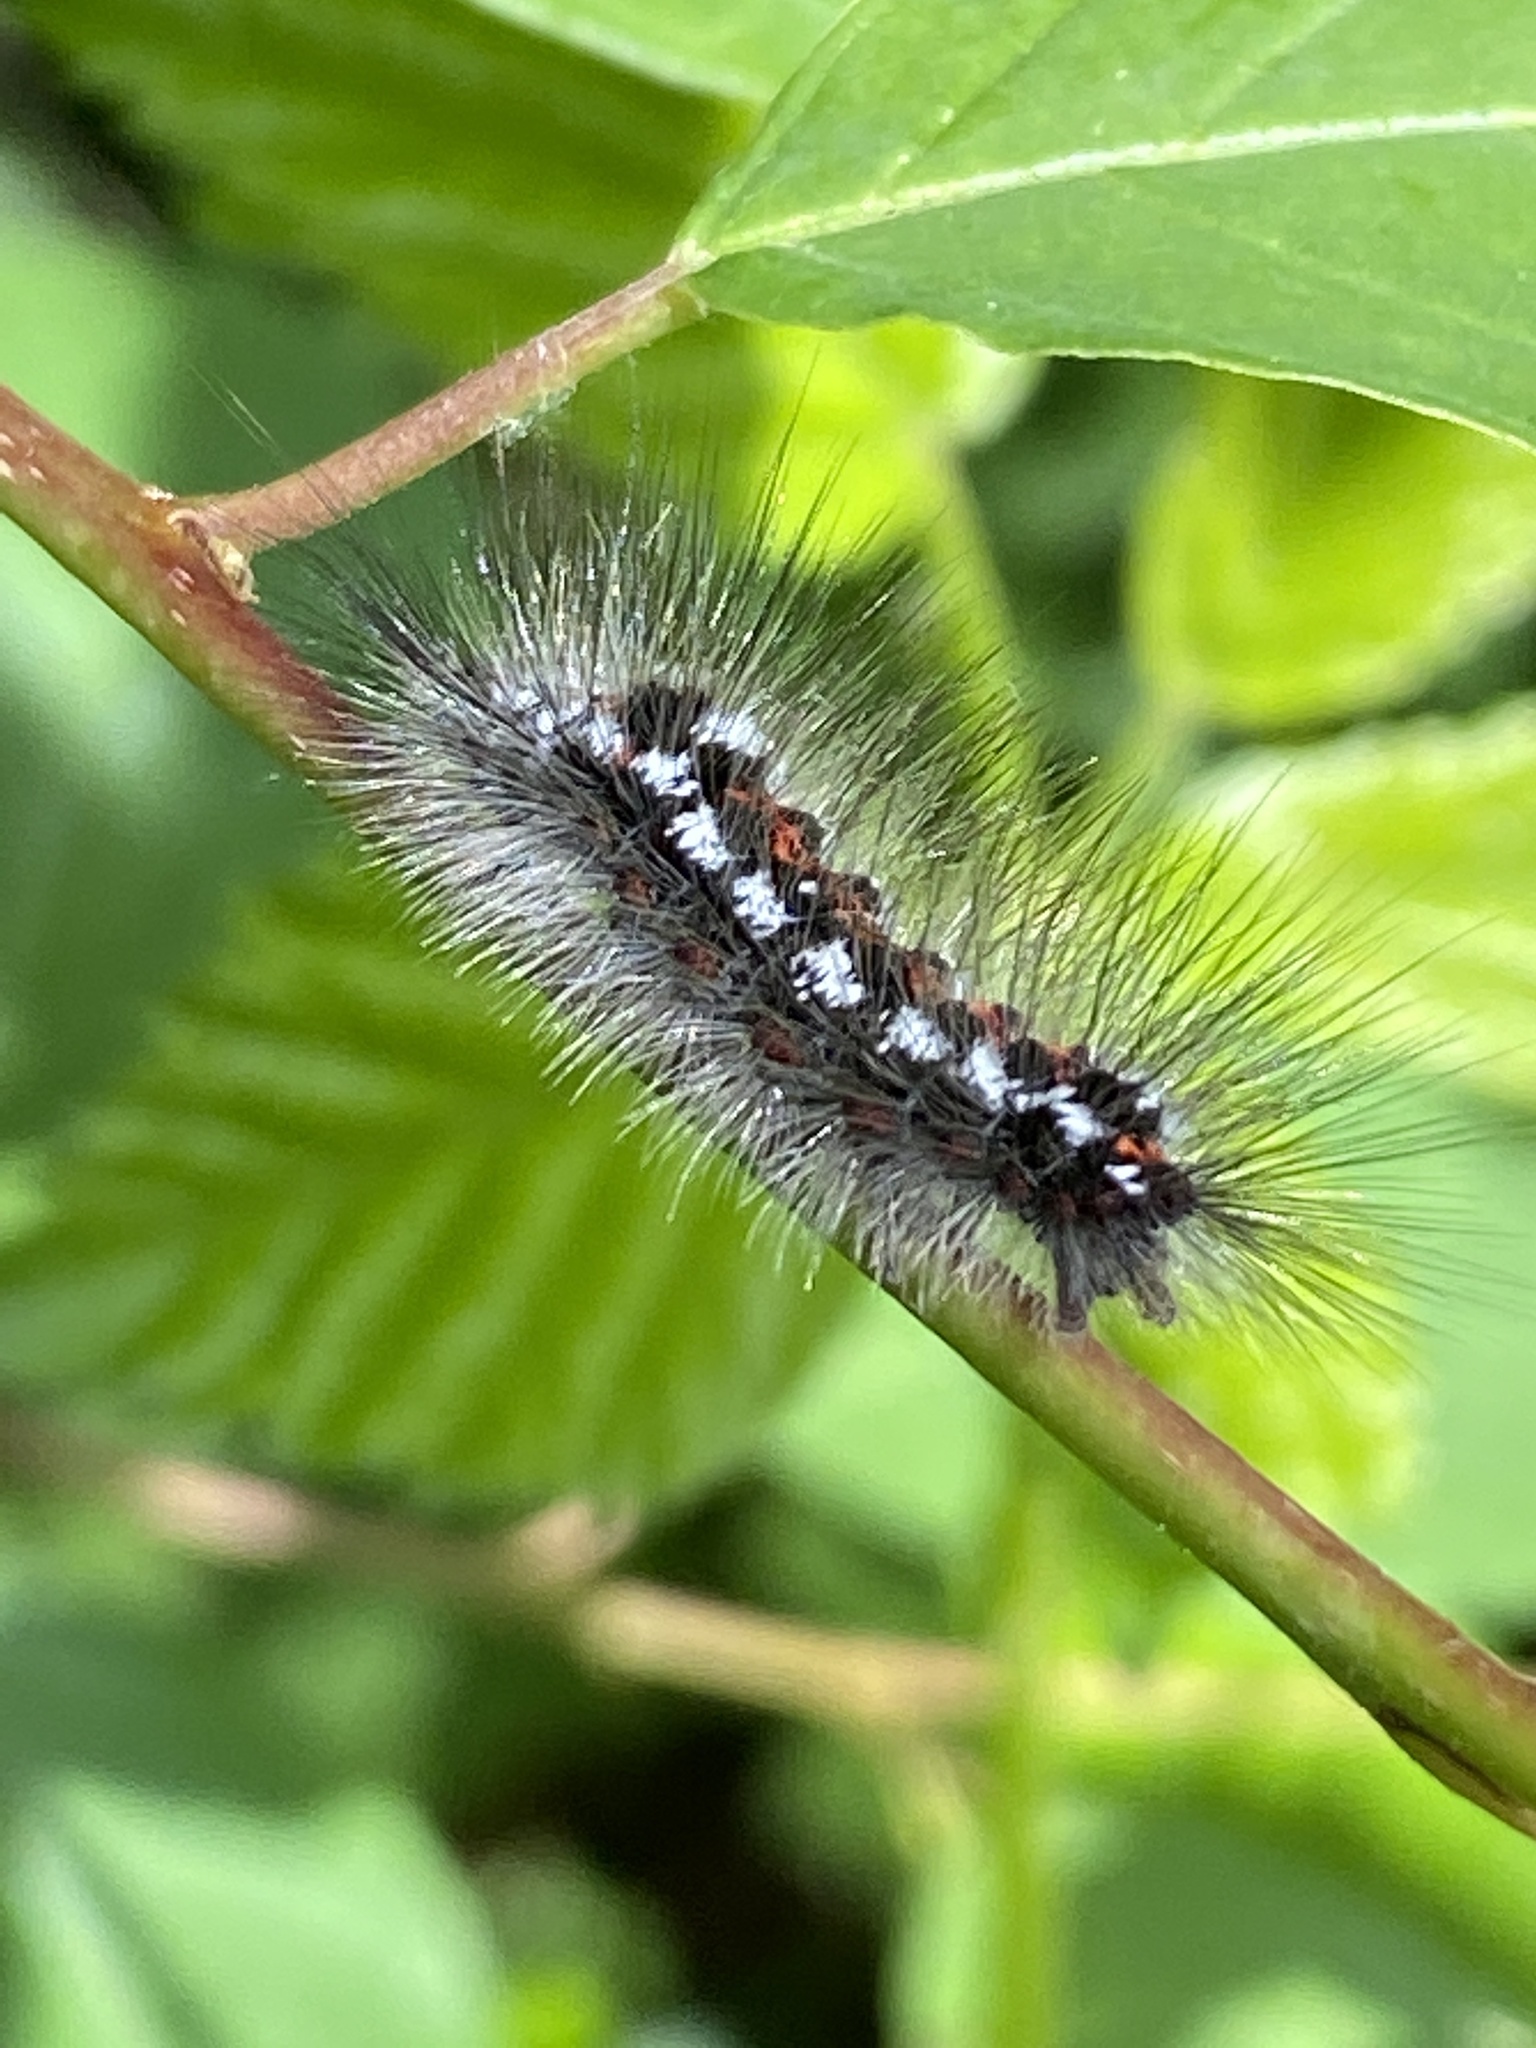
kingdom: Animalia
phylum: Arthropoda
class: Insecta
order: Lepidoptera
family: Erebidae
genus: Sphrageidus
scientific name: Sphrageidus similis
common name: Yellow-tail
